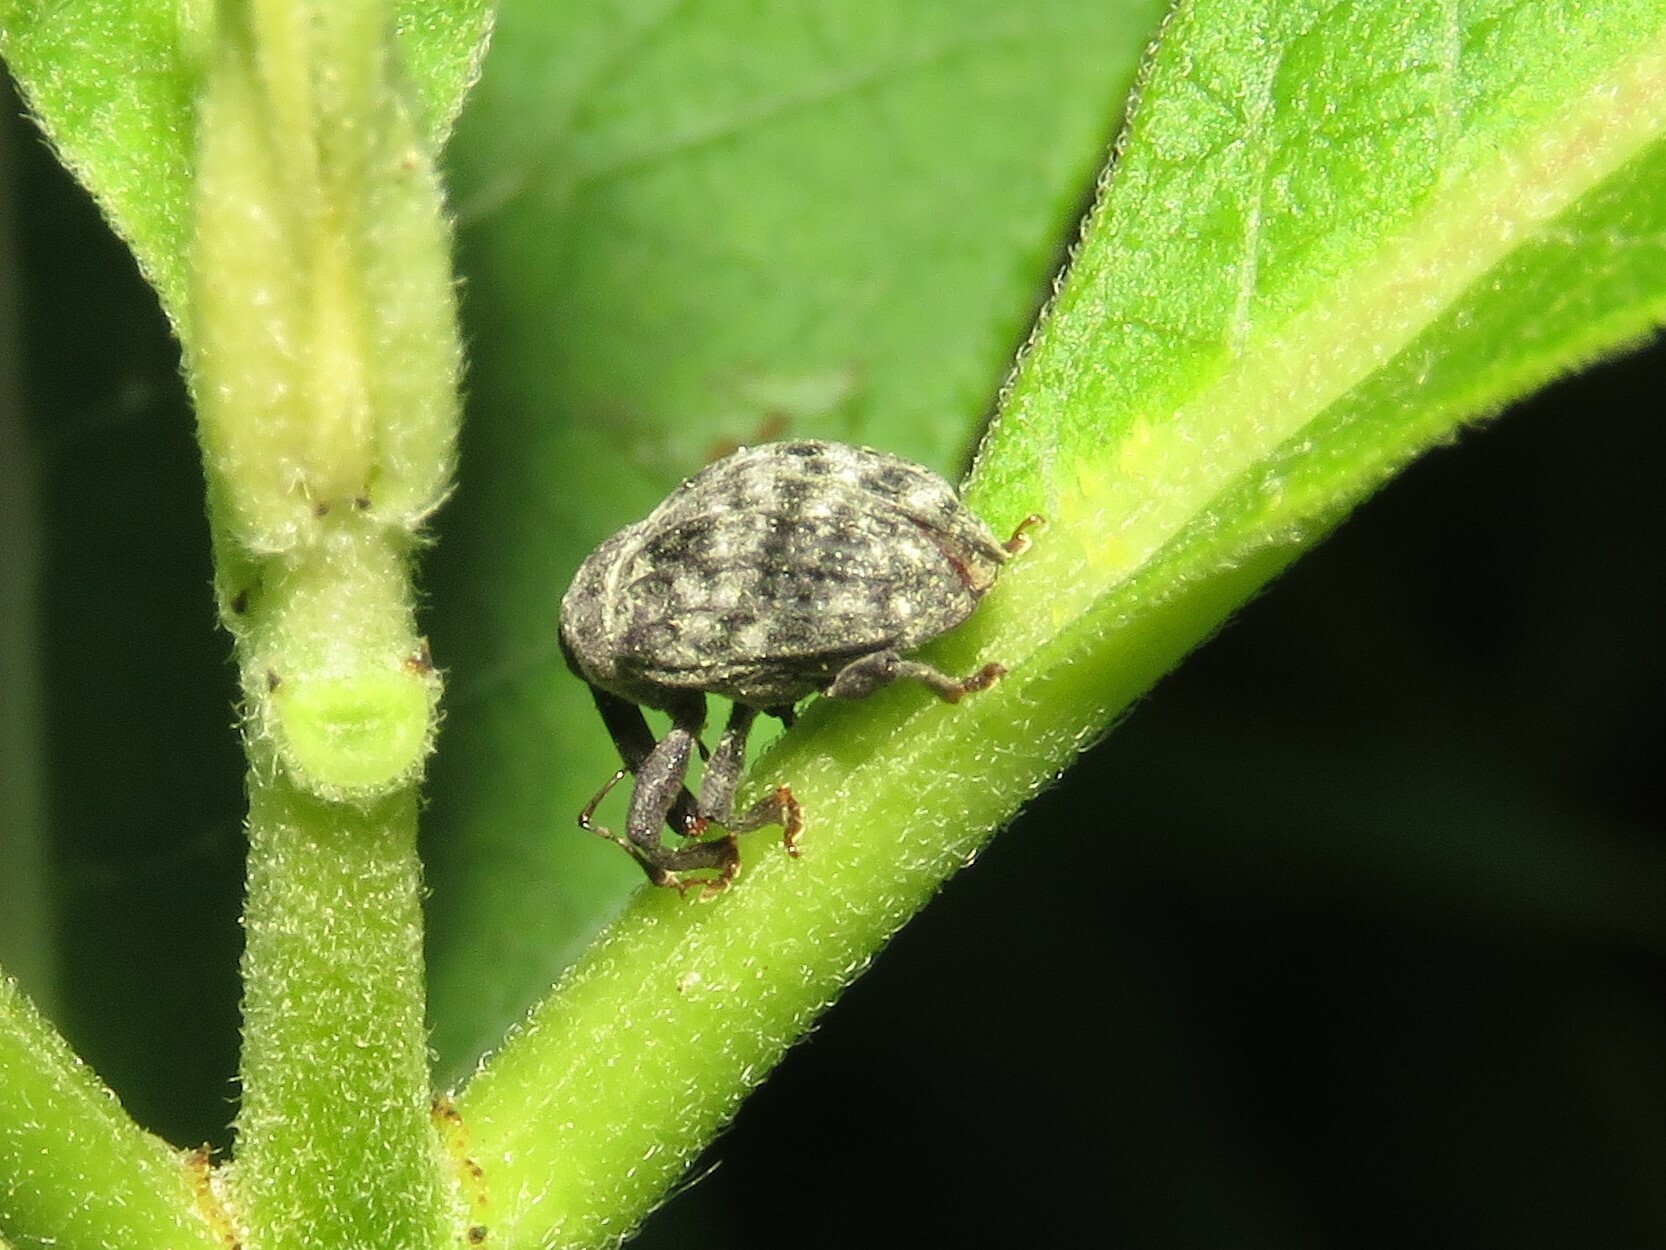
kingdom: Animalia
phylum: Arthropoda
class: Insecta
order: Coleoptera
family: Curculionidae
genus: Rhyssomatus
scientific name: Rhyssomatus lineaticollis
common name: Milkweed stem weevil
